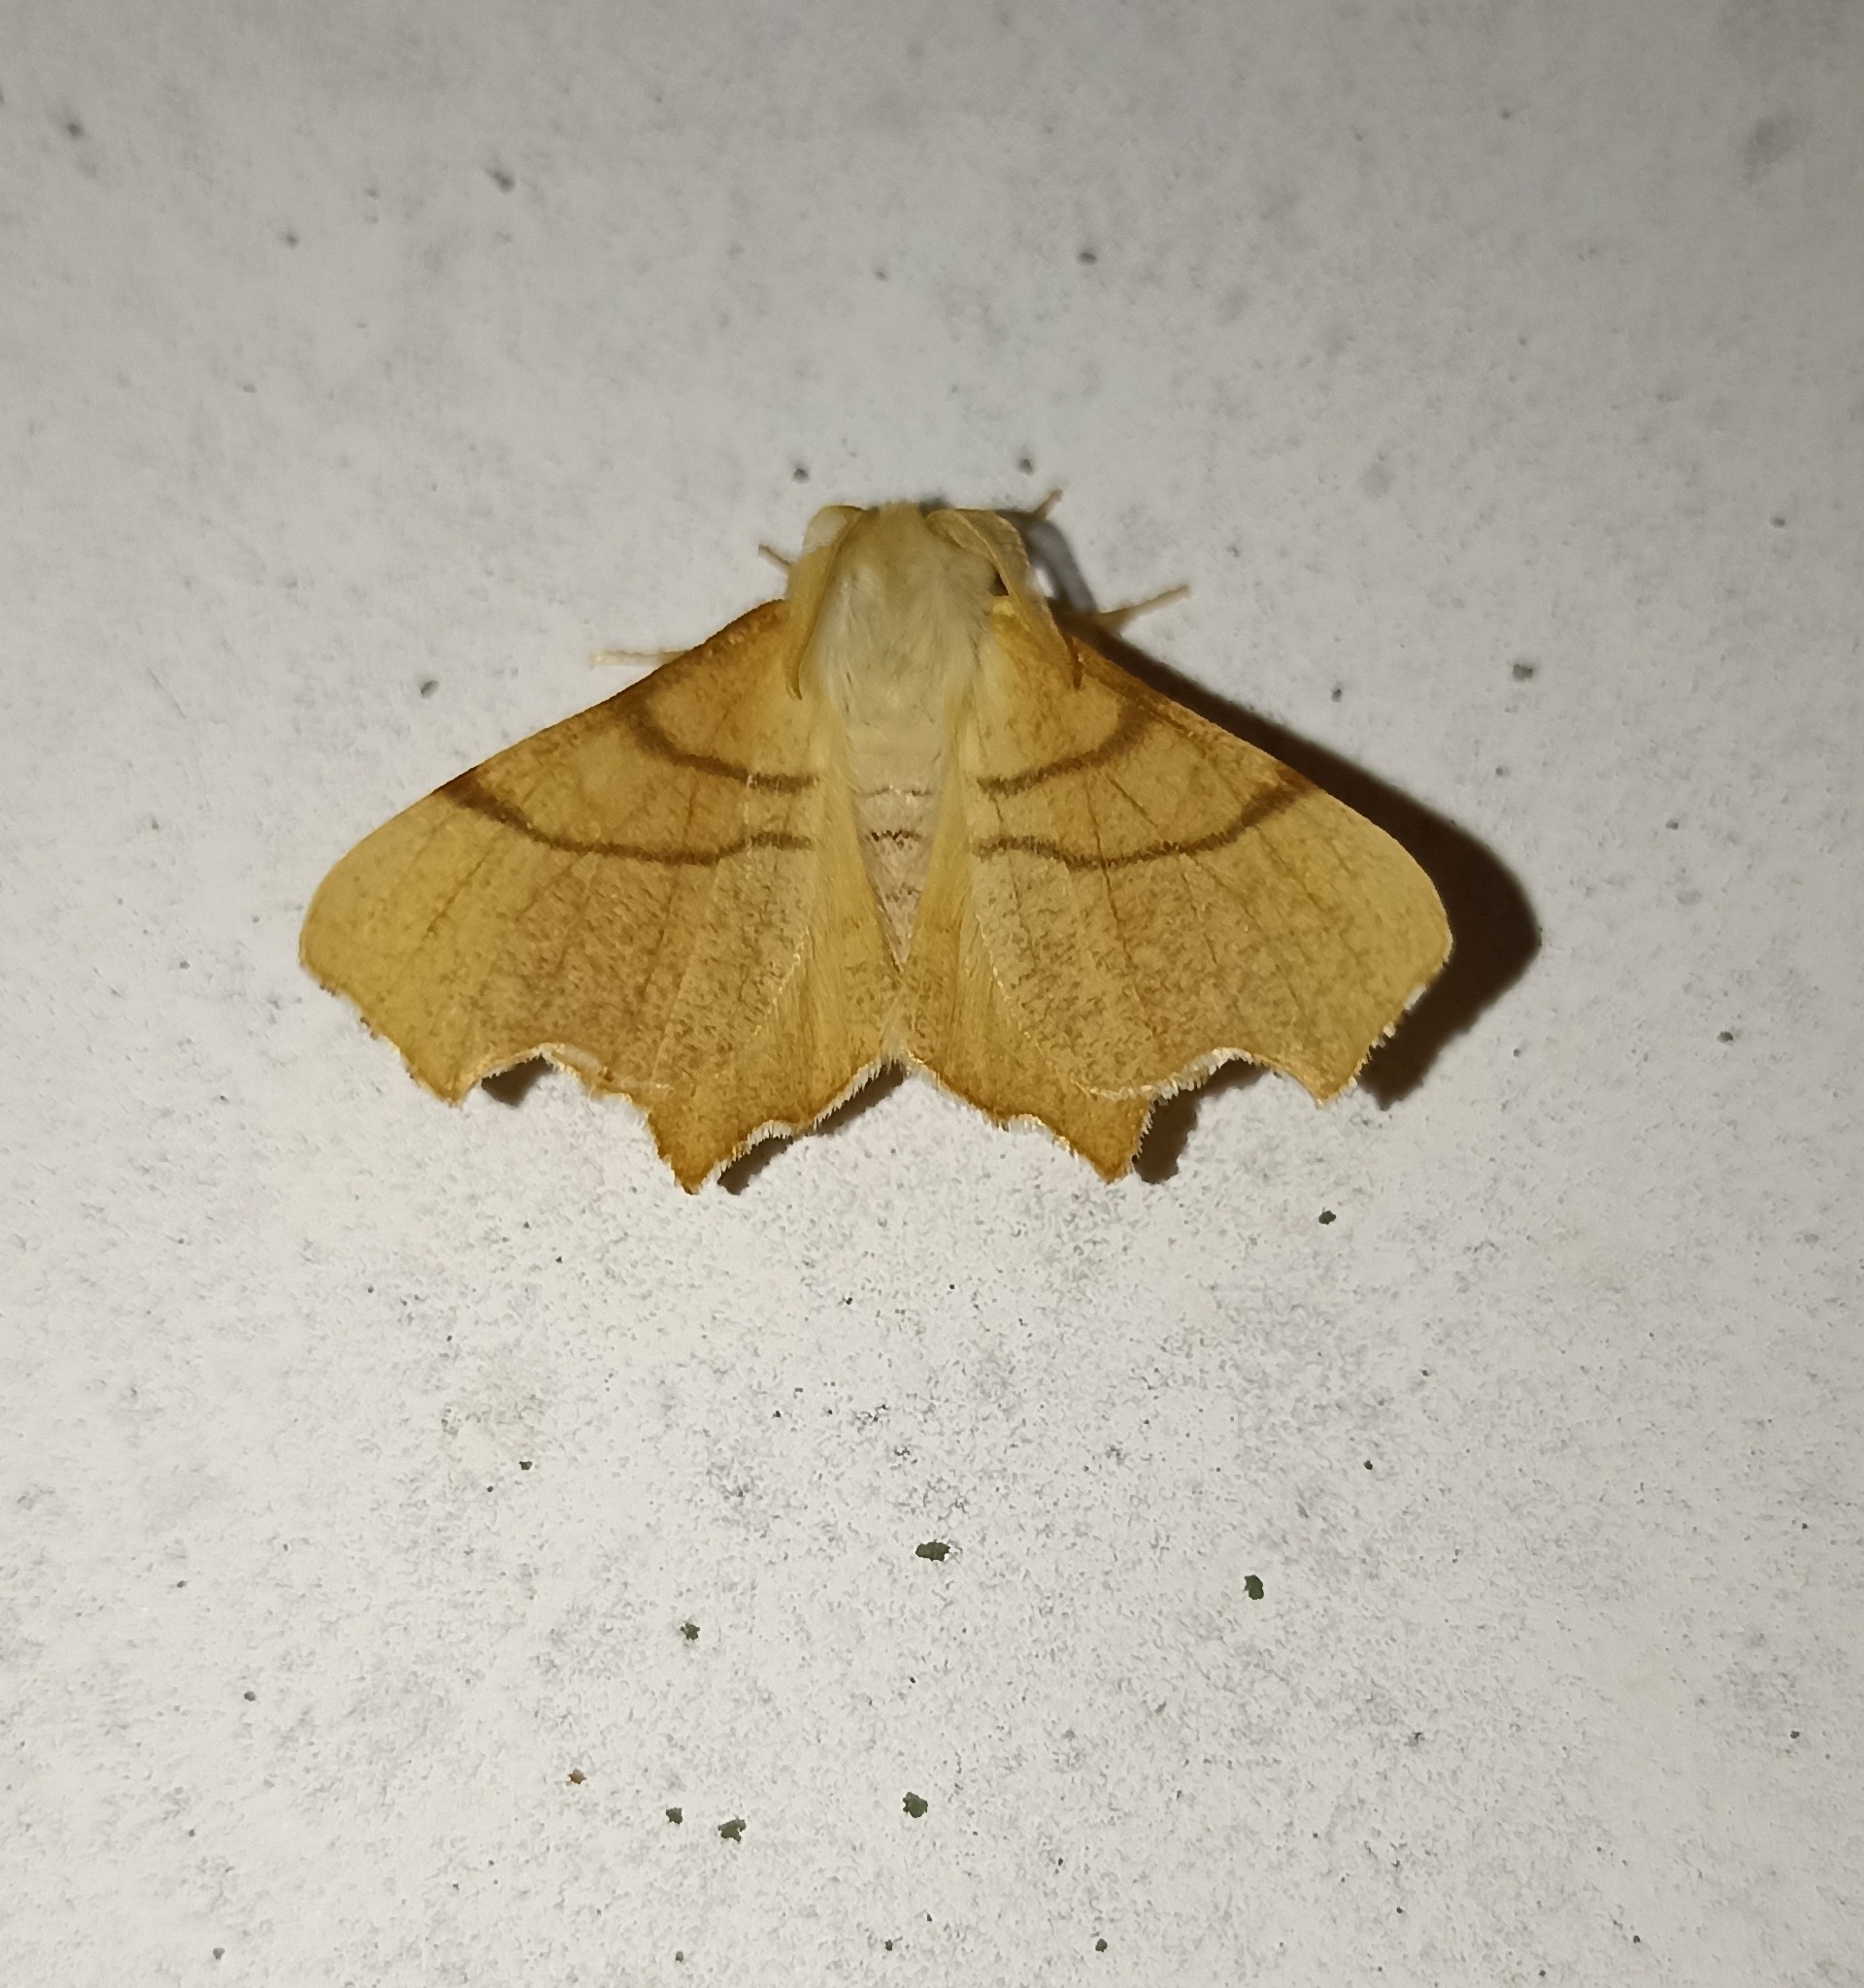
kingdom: Animalia
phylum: Arthropoda
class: Insecta
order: Lepidoptera
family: Geometridae
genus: Ennomos
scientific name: Ennomos erosaria
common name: September thorn
